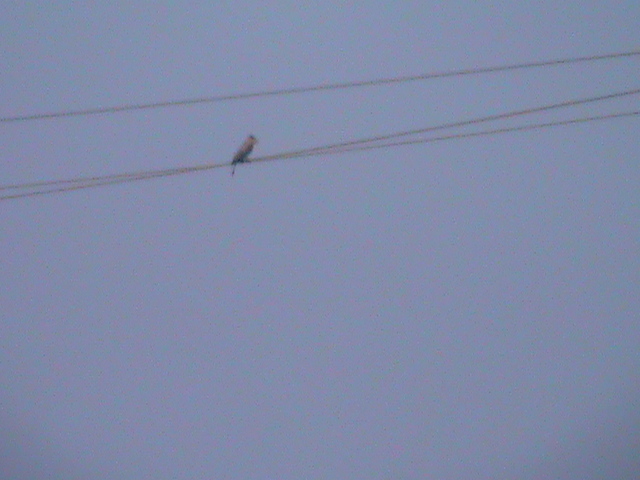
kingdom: Animalia
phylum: Chordata
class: Aves
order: Coraciiformes
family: Coraciidae
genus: Coracias
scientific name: Coracias benghalensis
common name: Indian roller
